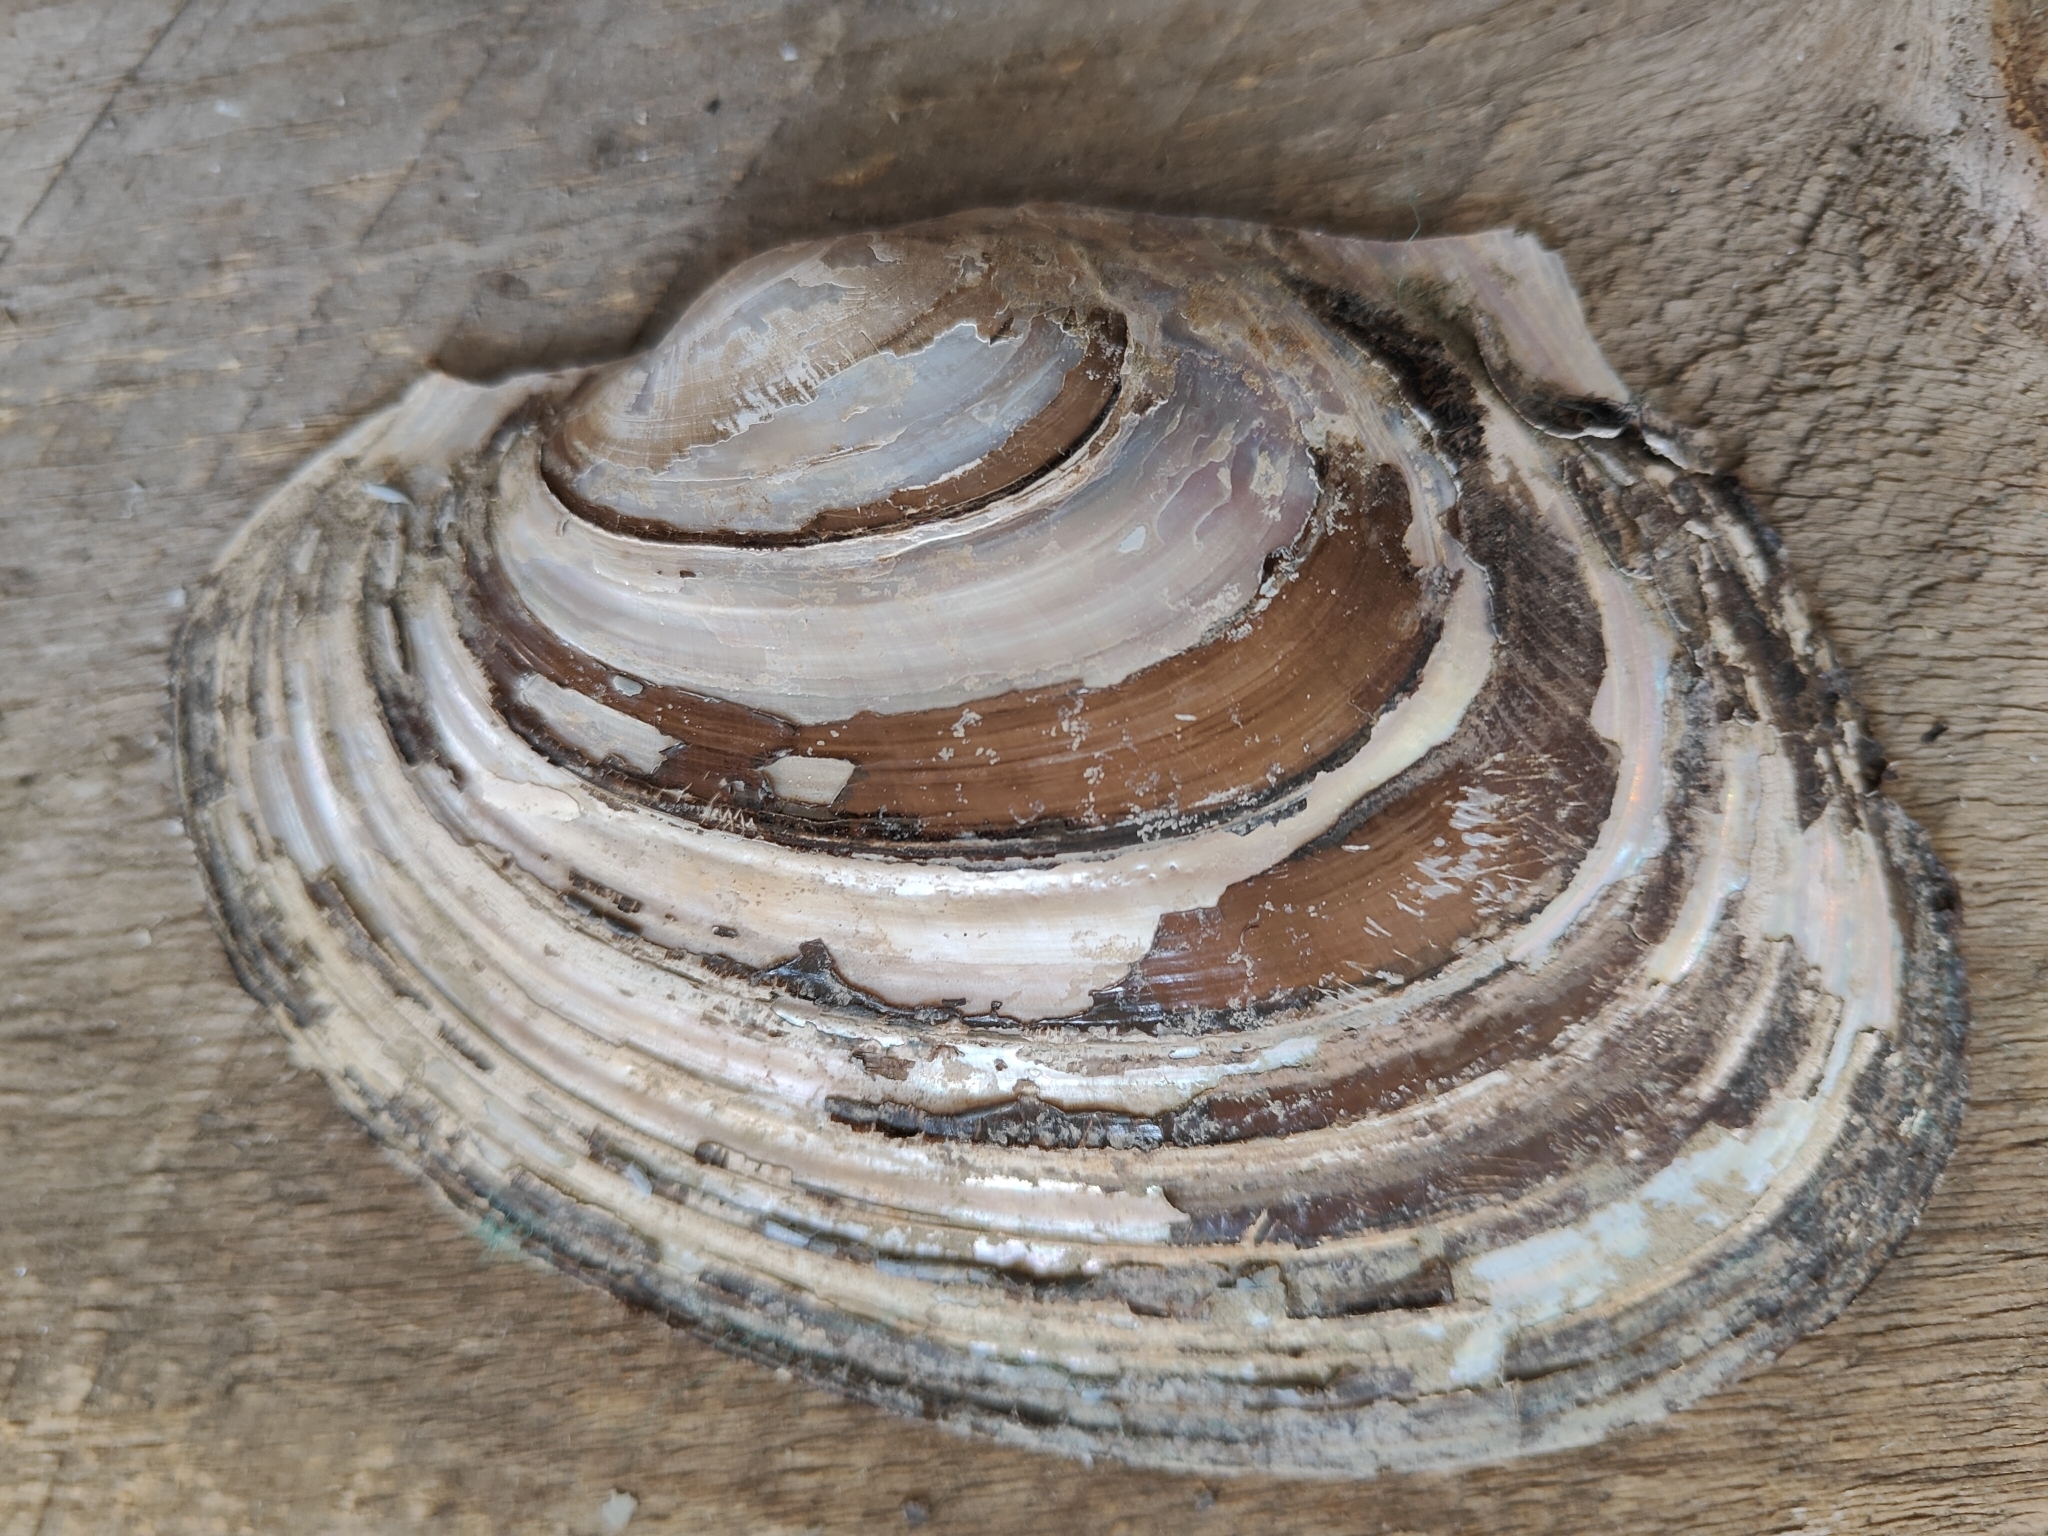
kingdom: Animalia
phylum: Mollusca
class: Bivalvia
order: Unionida
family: Unionidae
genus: Potamilus
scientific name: Potamilus ohiensis
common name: Pink papershell
